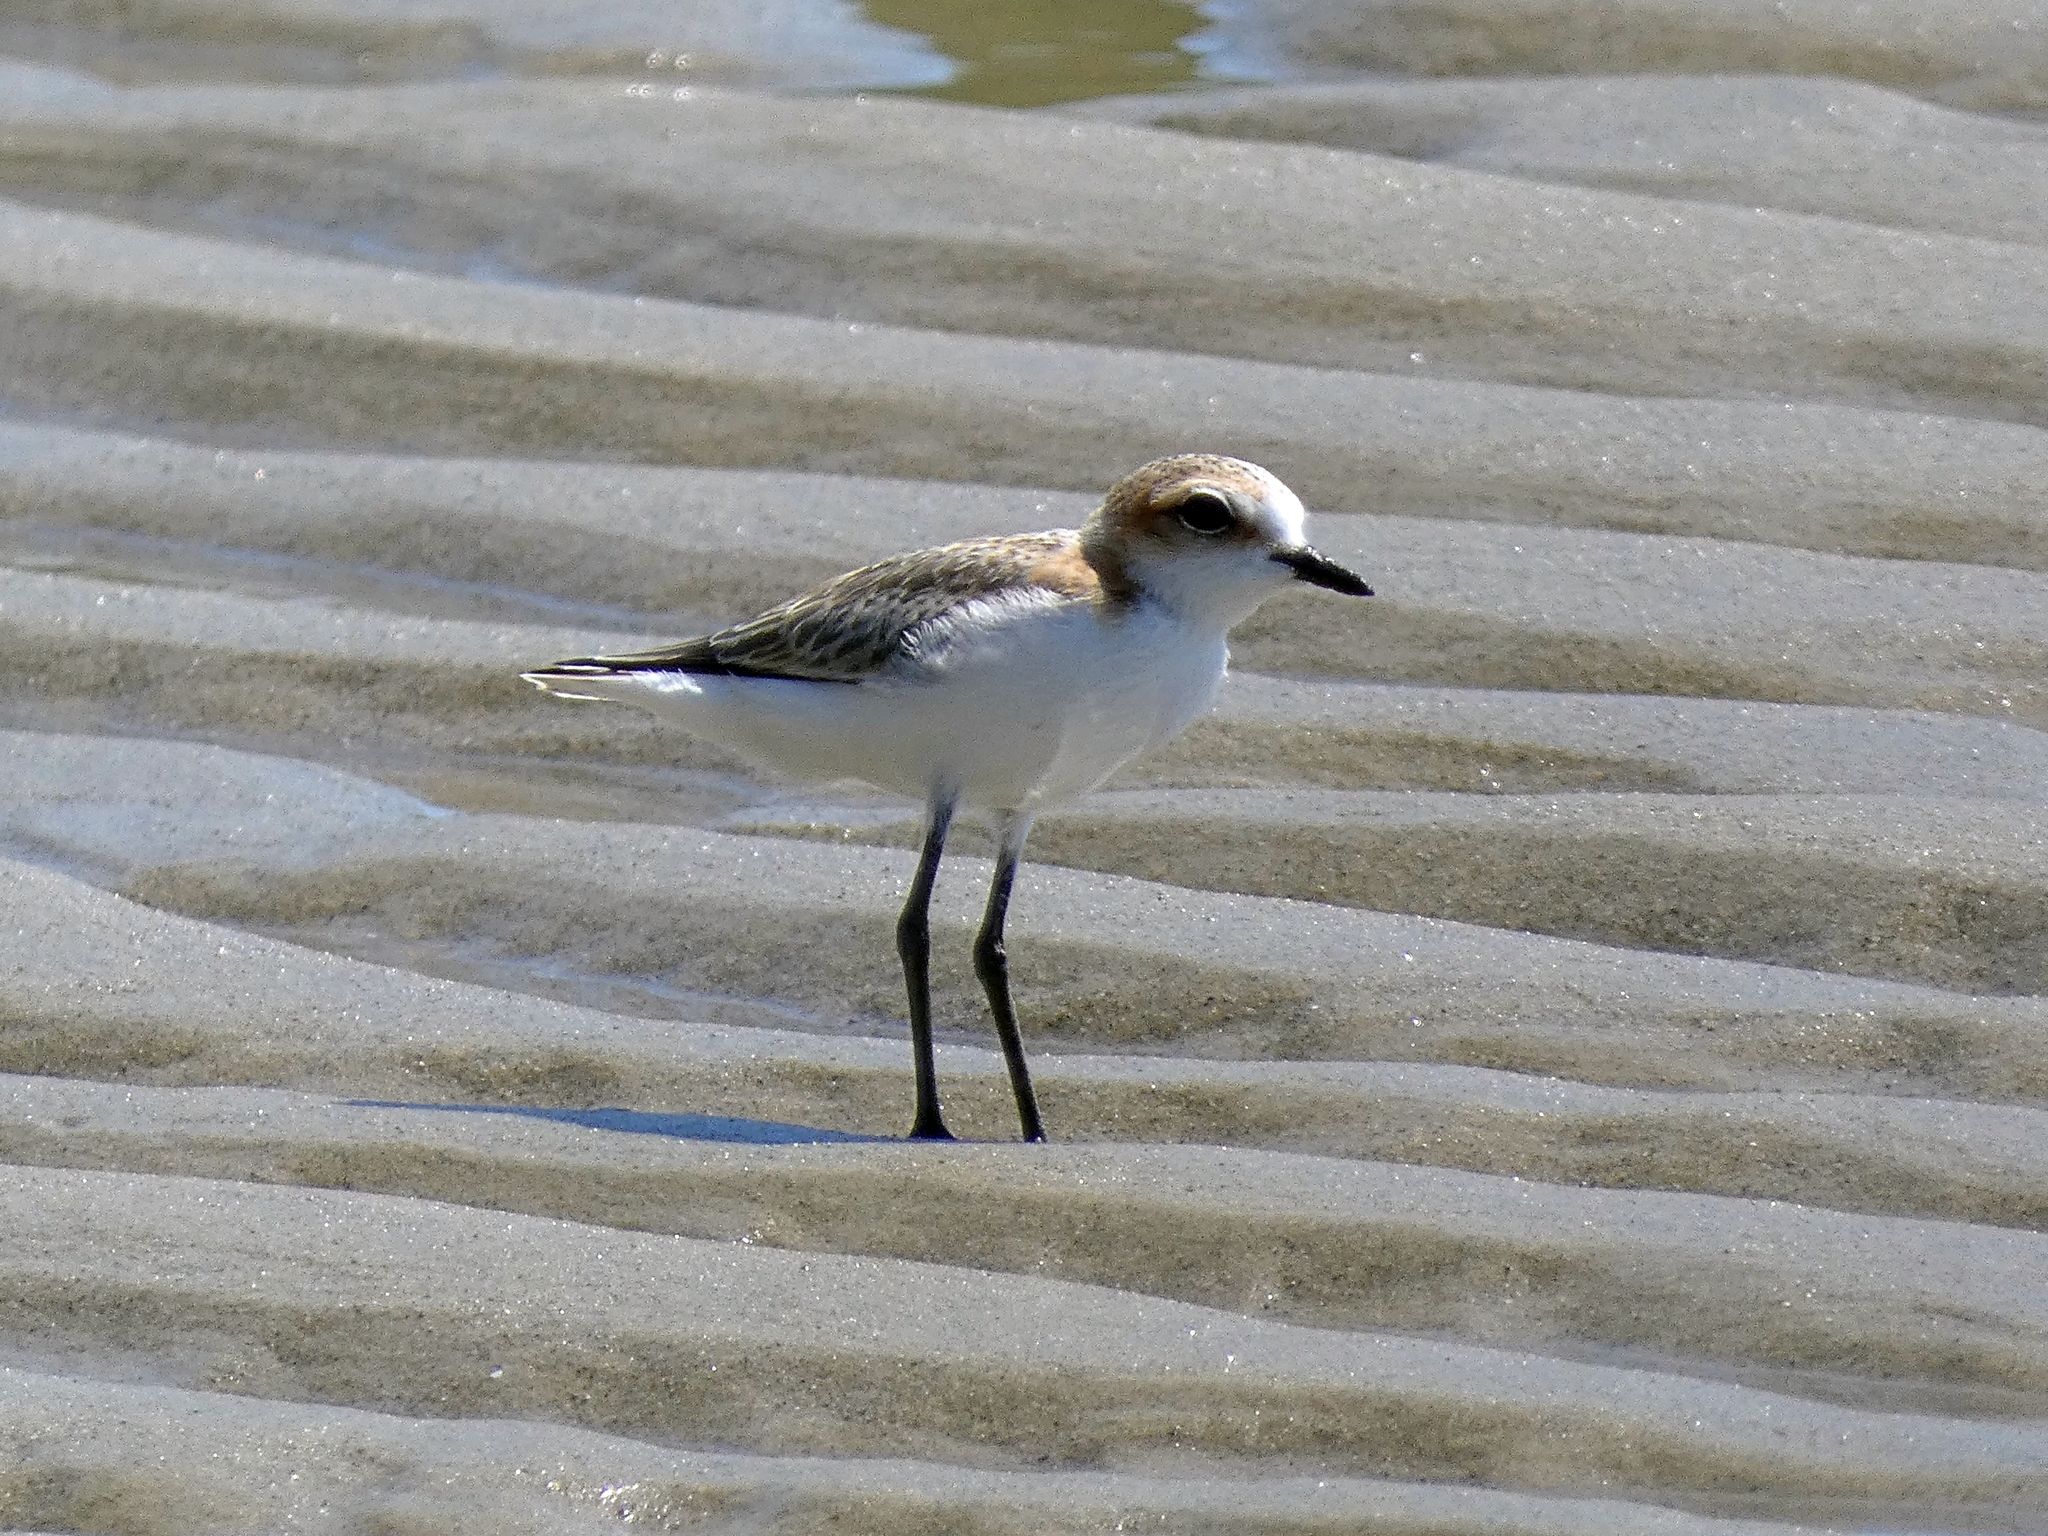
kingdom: Animalia
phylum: Chordata
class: Aves
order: Charadriiformes
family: Charadriidae
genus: Anarhynchus
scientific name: Anarhynchus
